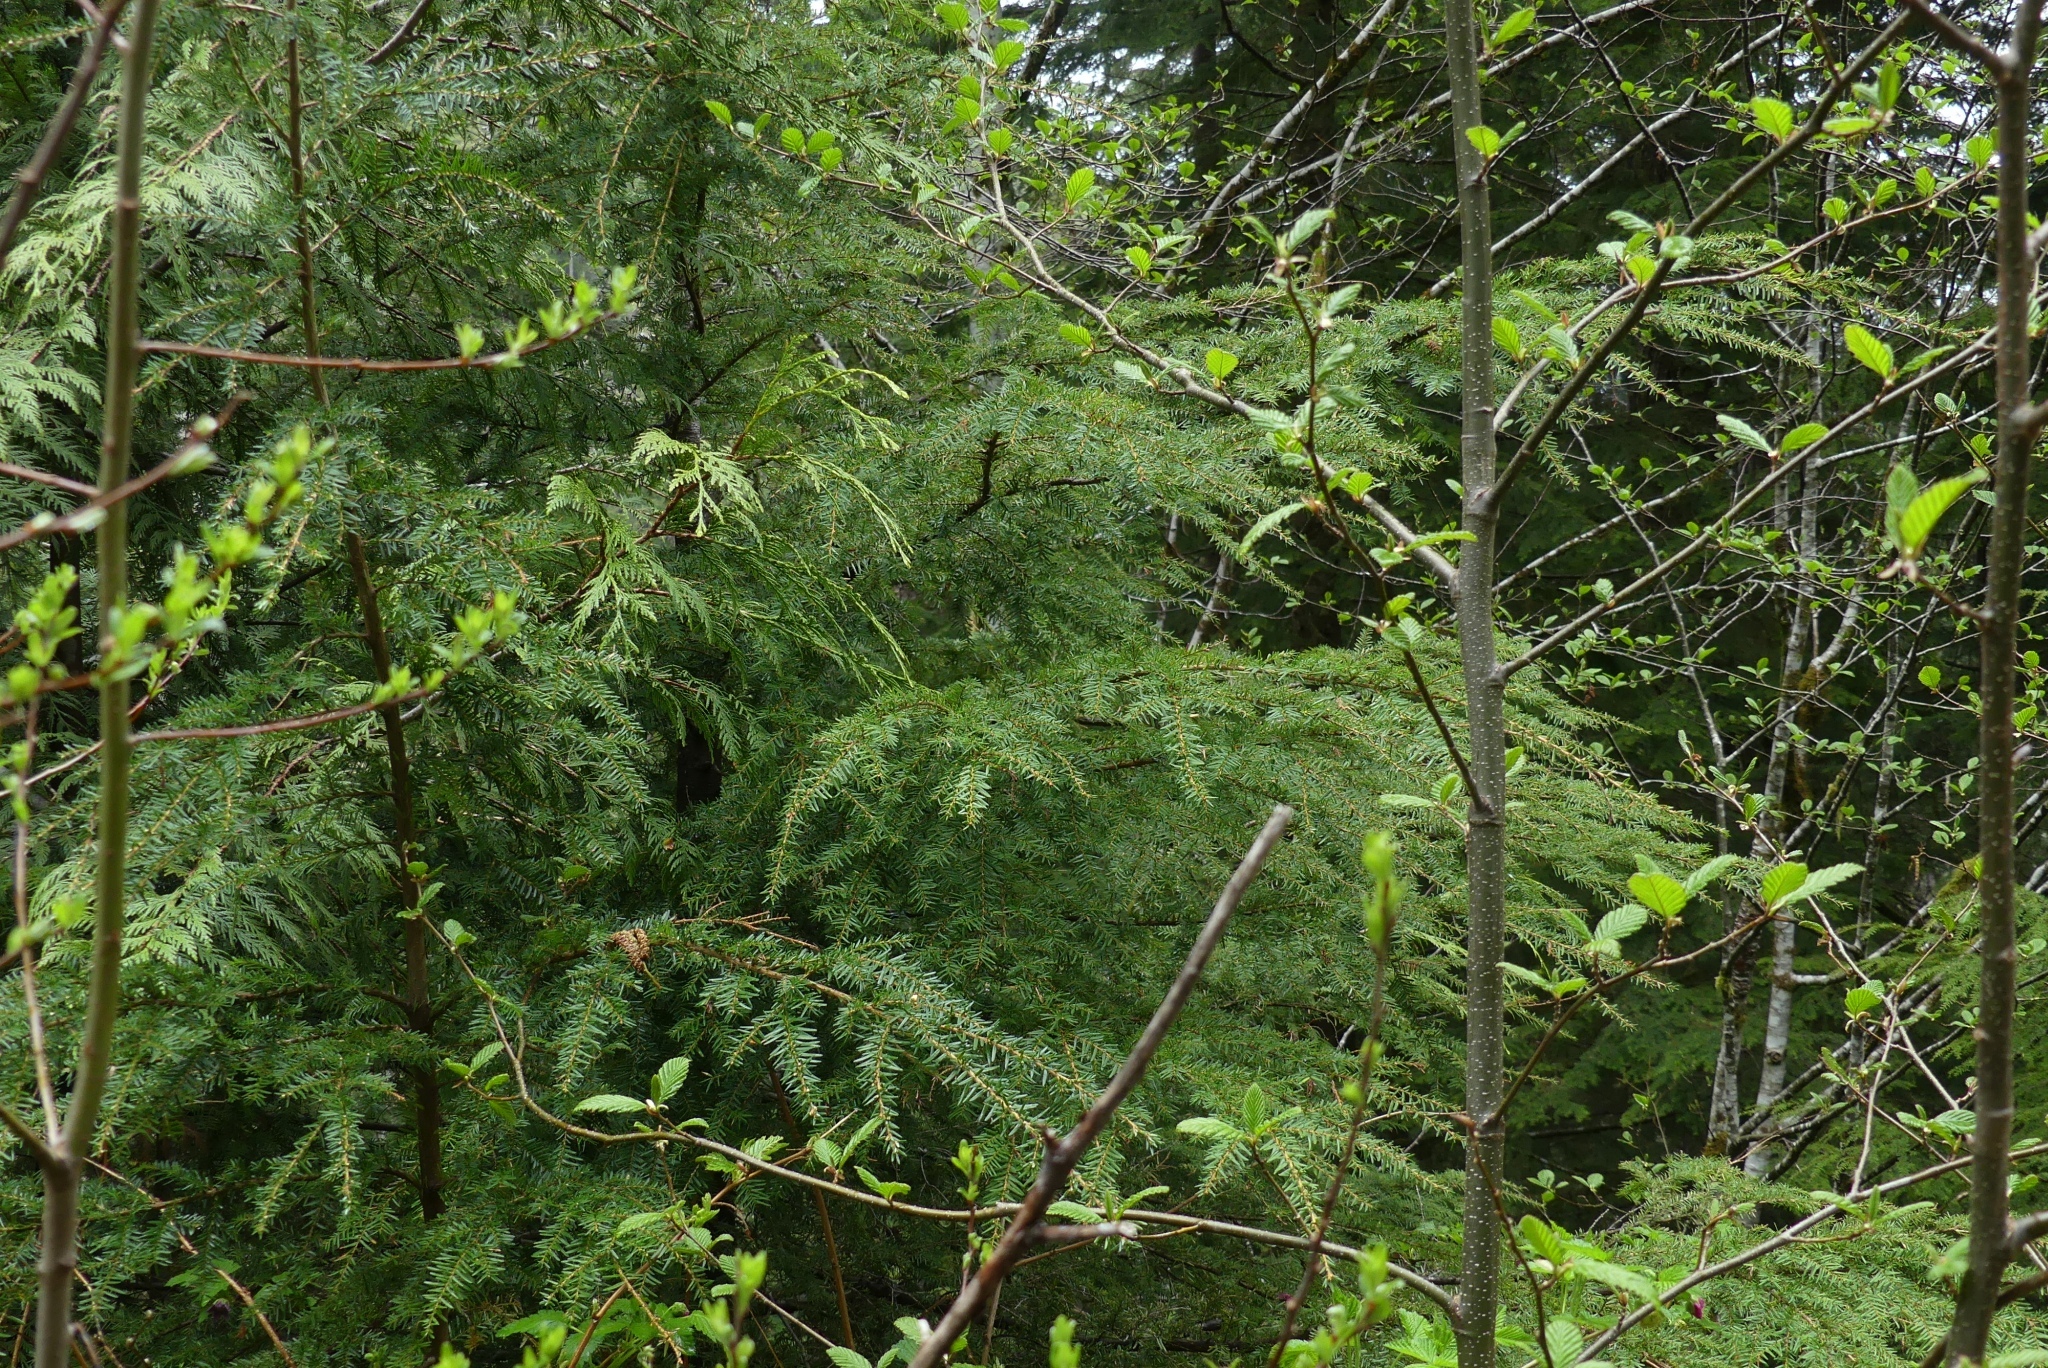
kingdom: Plantae
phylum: Tracheophyta
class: Pinopsida
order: Pinales
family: Pinaceae
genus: Tsuga
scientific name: Tsuga heterophylla
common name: Western hemlock
